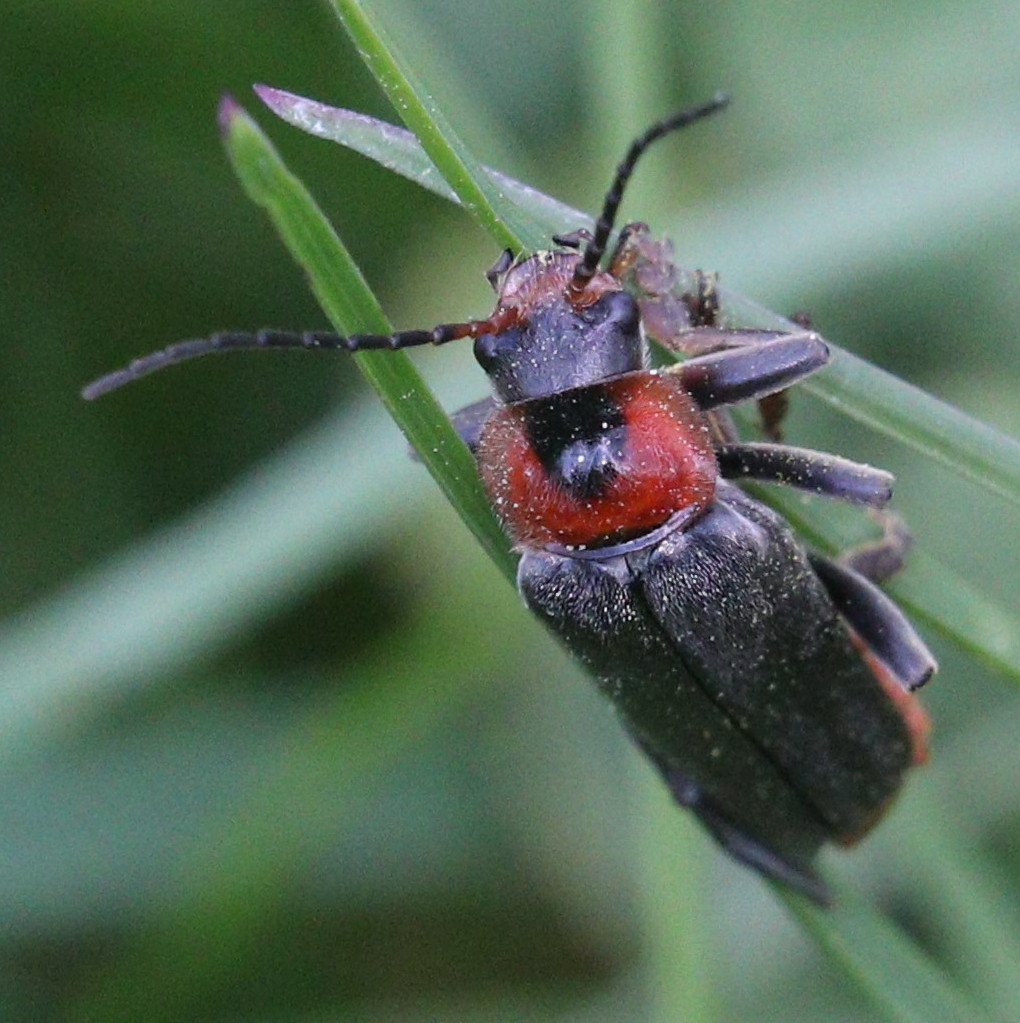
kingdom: Animalia
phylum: Arthropoda
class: Insecta
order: Coleoptera
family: Cantharidae
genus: Cantharis
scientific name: Cantharis fusca
